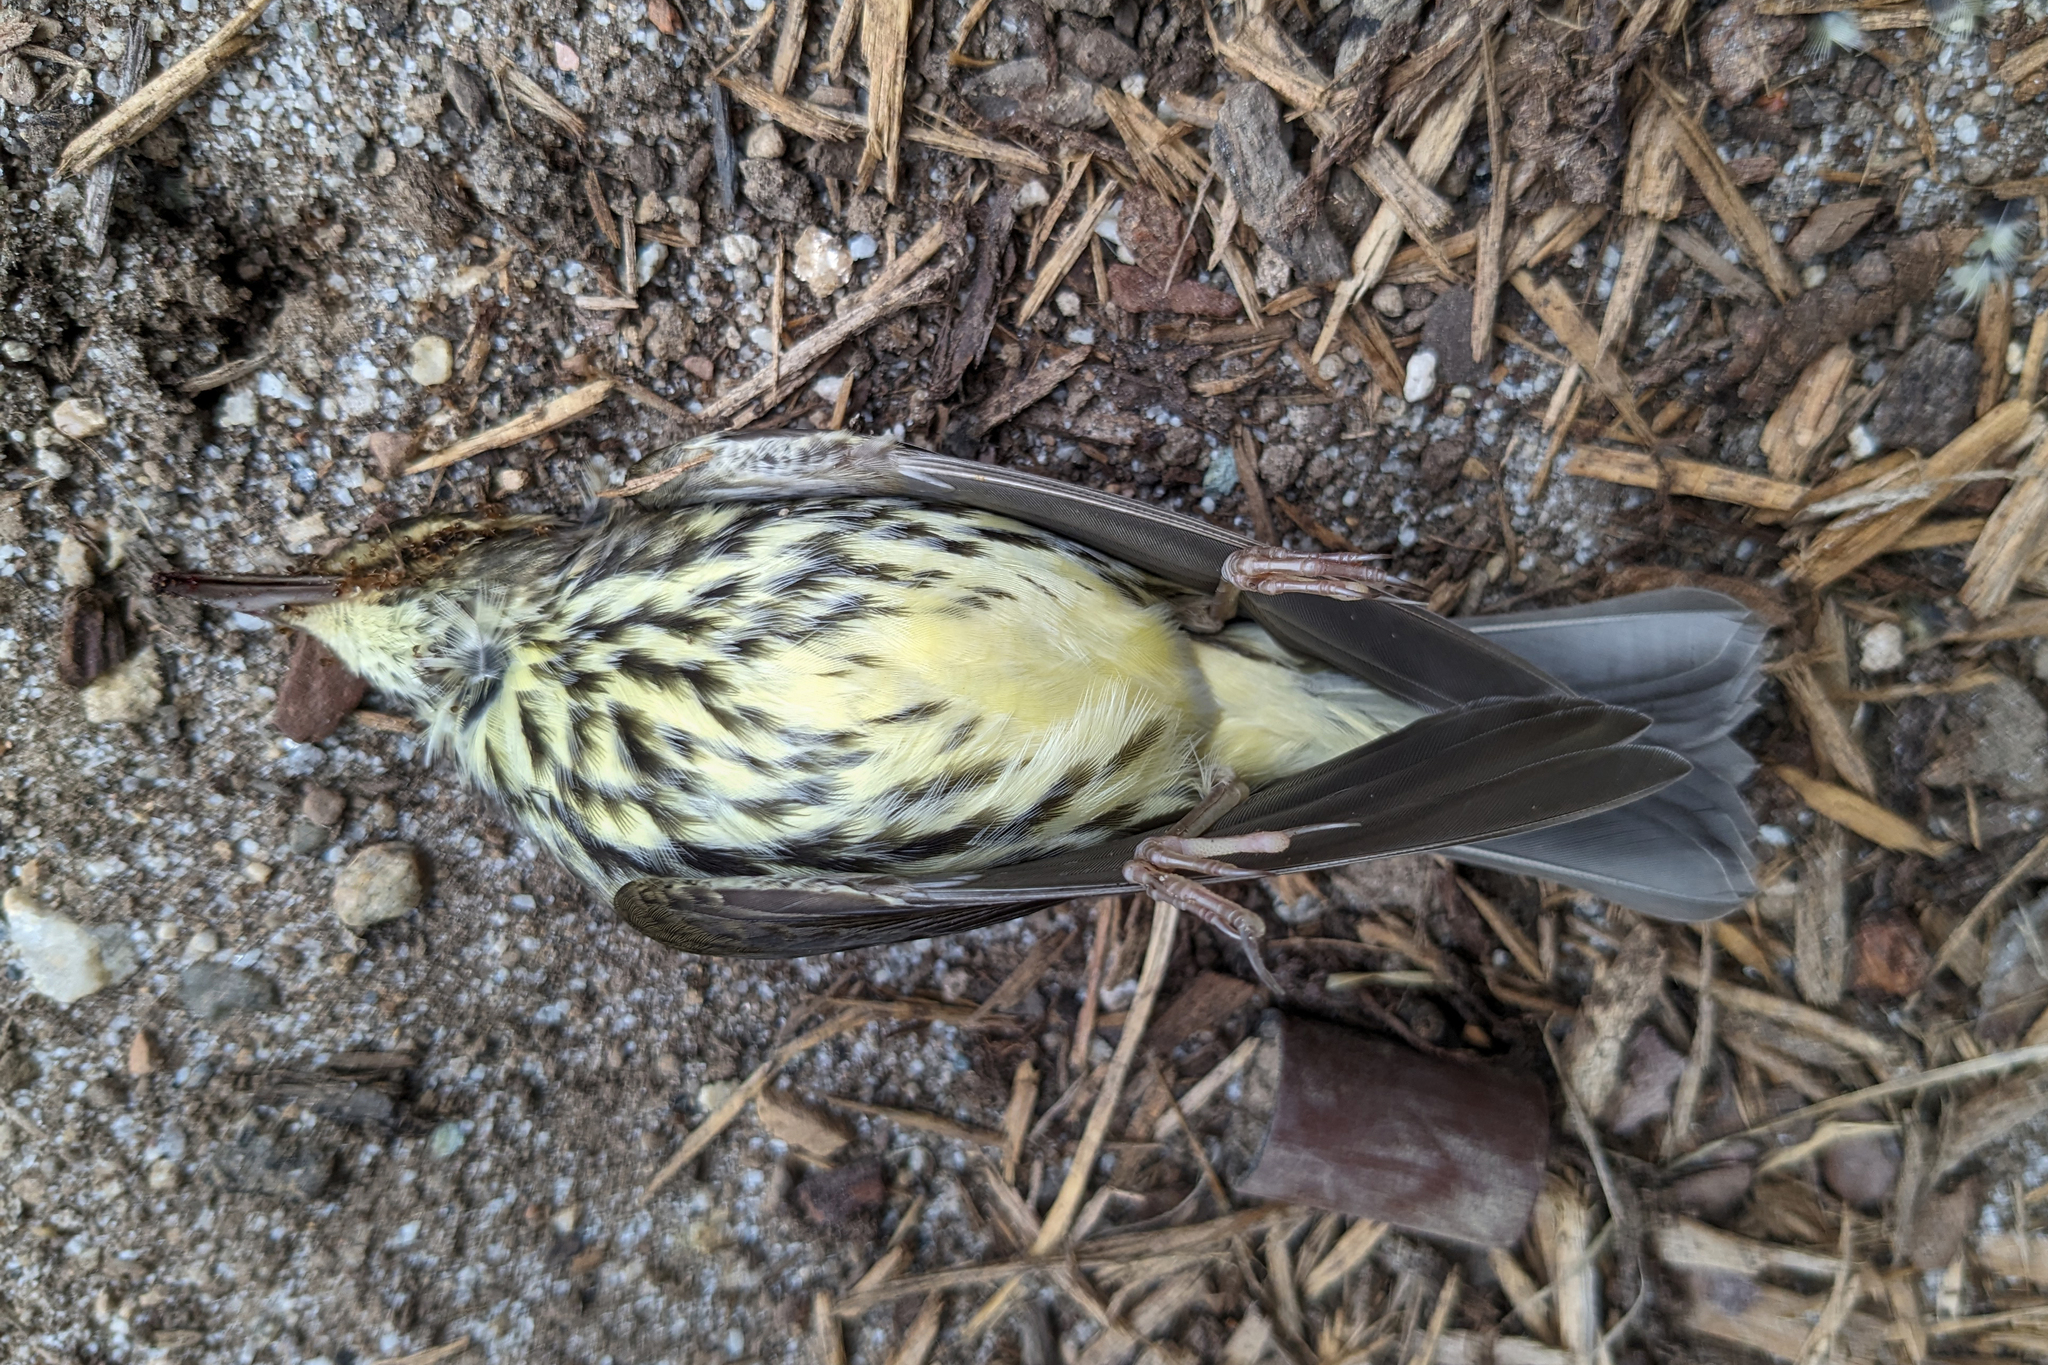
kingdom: Animalia
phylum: Chordata
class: Aves
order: Passeriformes
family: Parulidae
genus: Parkesia
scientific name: Parkesia noveboracensis
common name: Northern waterthrush
